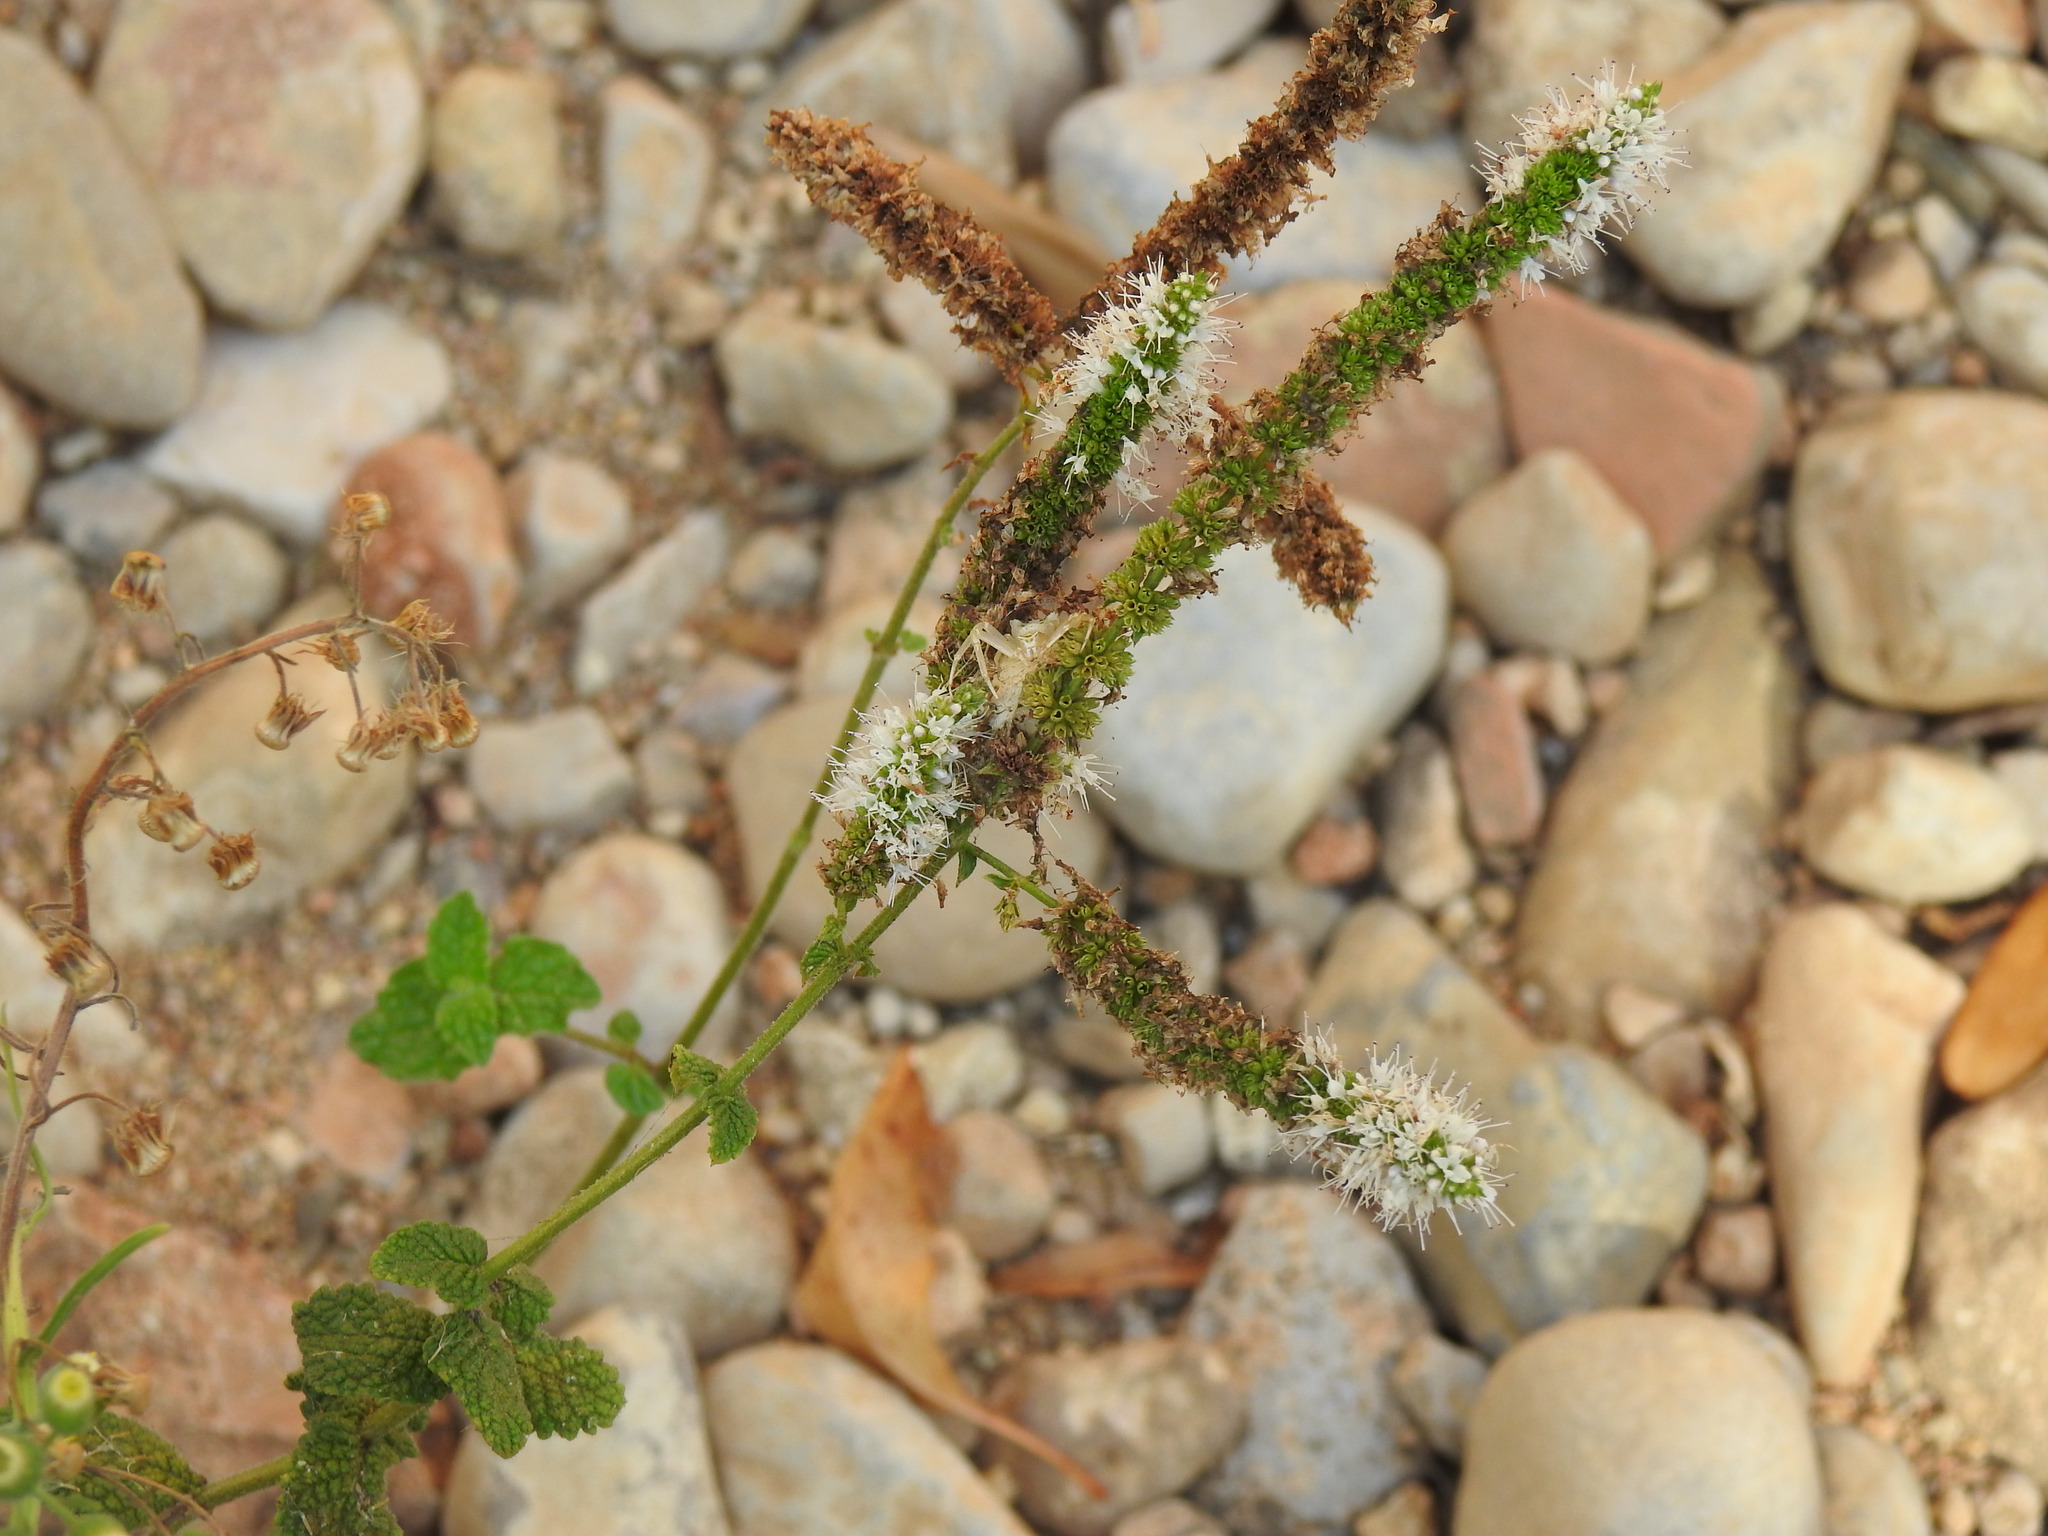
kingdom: Plantae
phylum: Tracheophyta
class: Magnoliopsida
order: Lamiales
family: Lamiaceae
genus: Mentha
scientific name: Mentha suaveolens
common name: Apple mint
